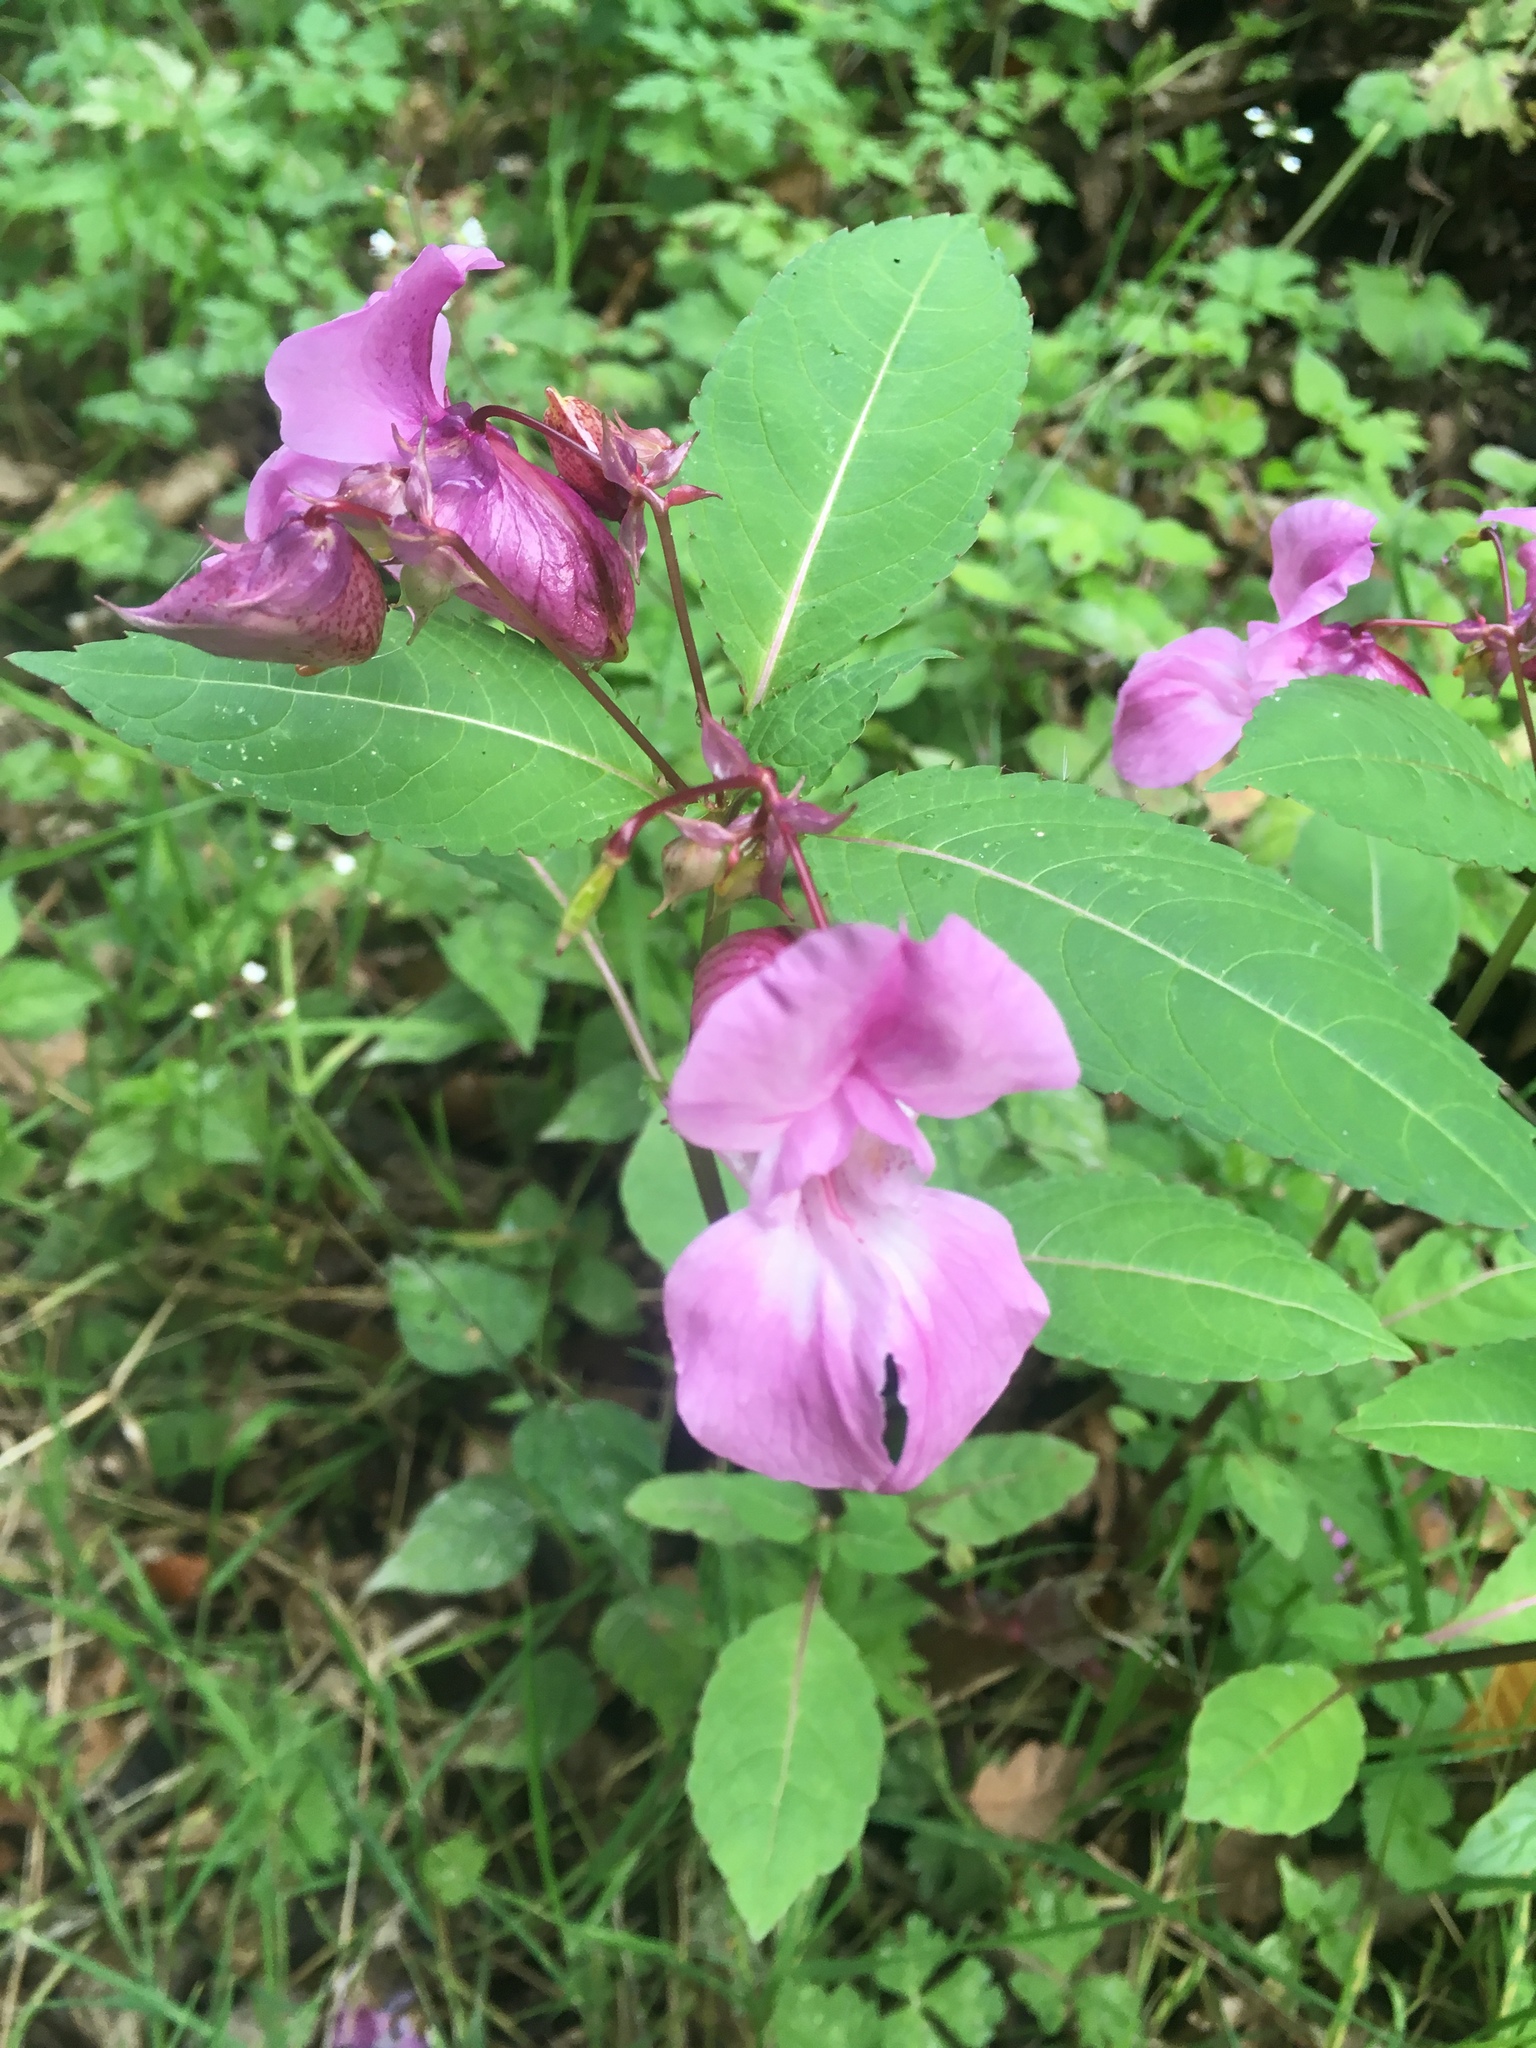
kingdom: Plantae
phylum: Tracheophyta
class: Magnoliopsida
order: Ericales
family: Balsaminaceae
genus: Impatiens
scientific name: Impatiens glandulifera
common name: Himalayan balsam
